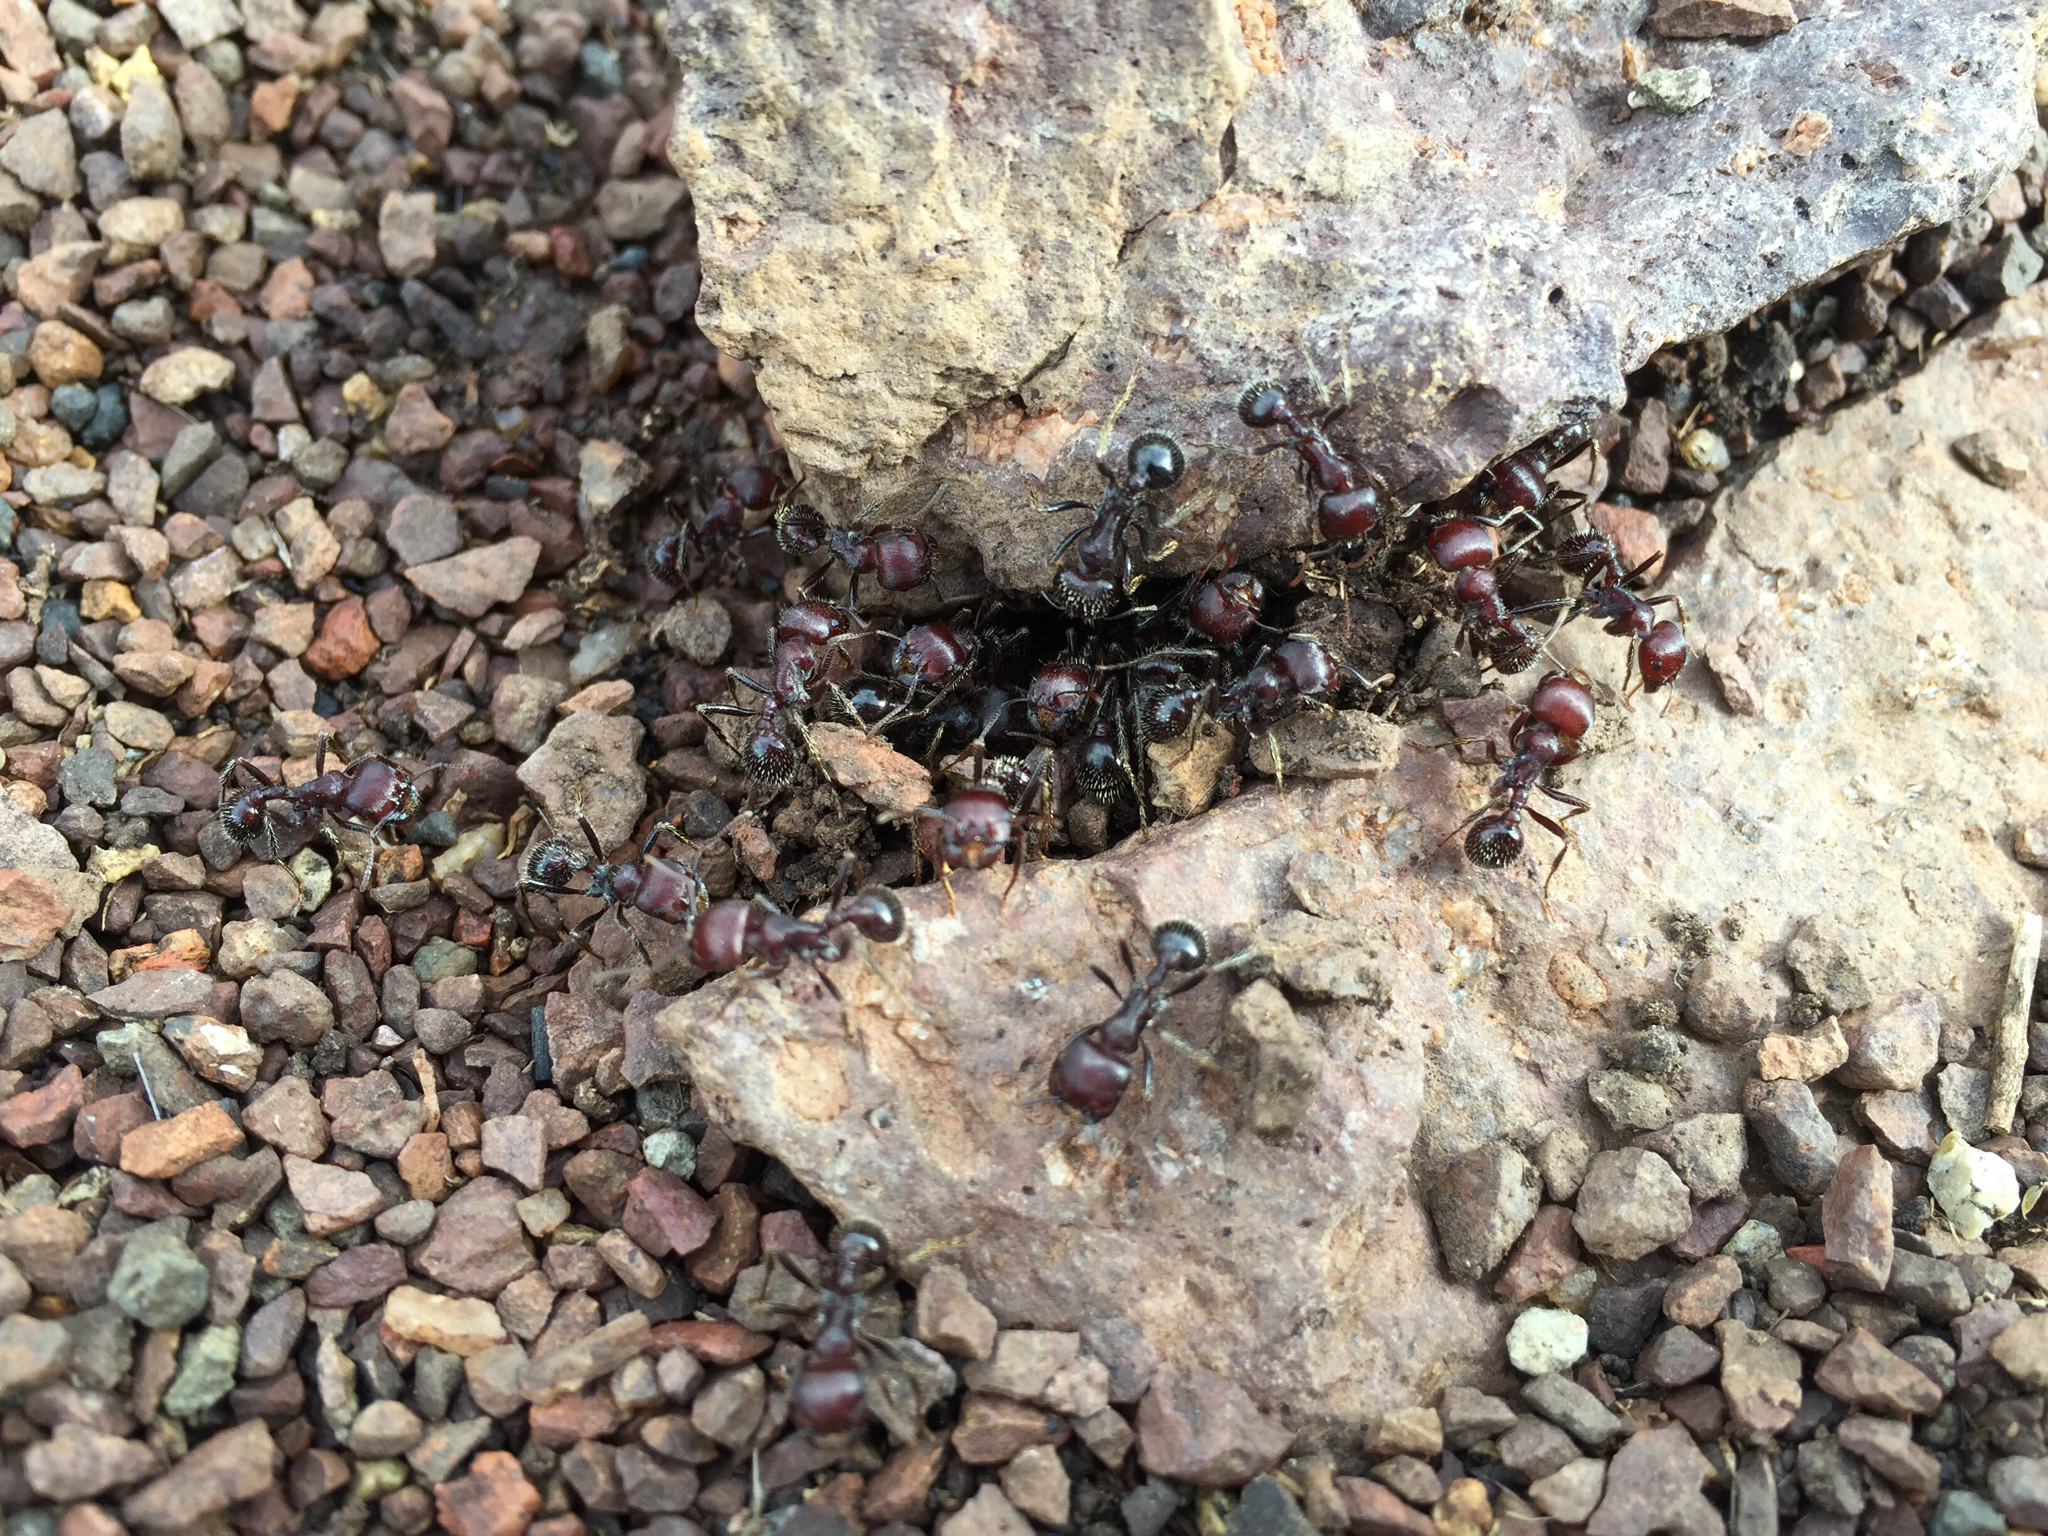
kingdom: Animalia
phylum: Arthropoda
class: Insecta
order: Hymenoptera
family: Formicidae
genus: Pogonomyrmex
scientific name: Pogonomyrmex
